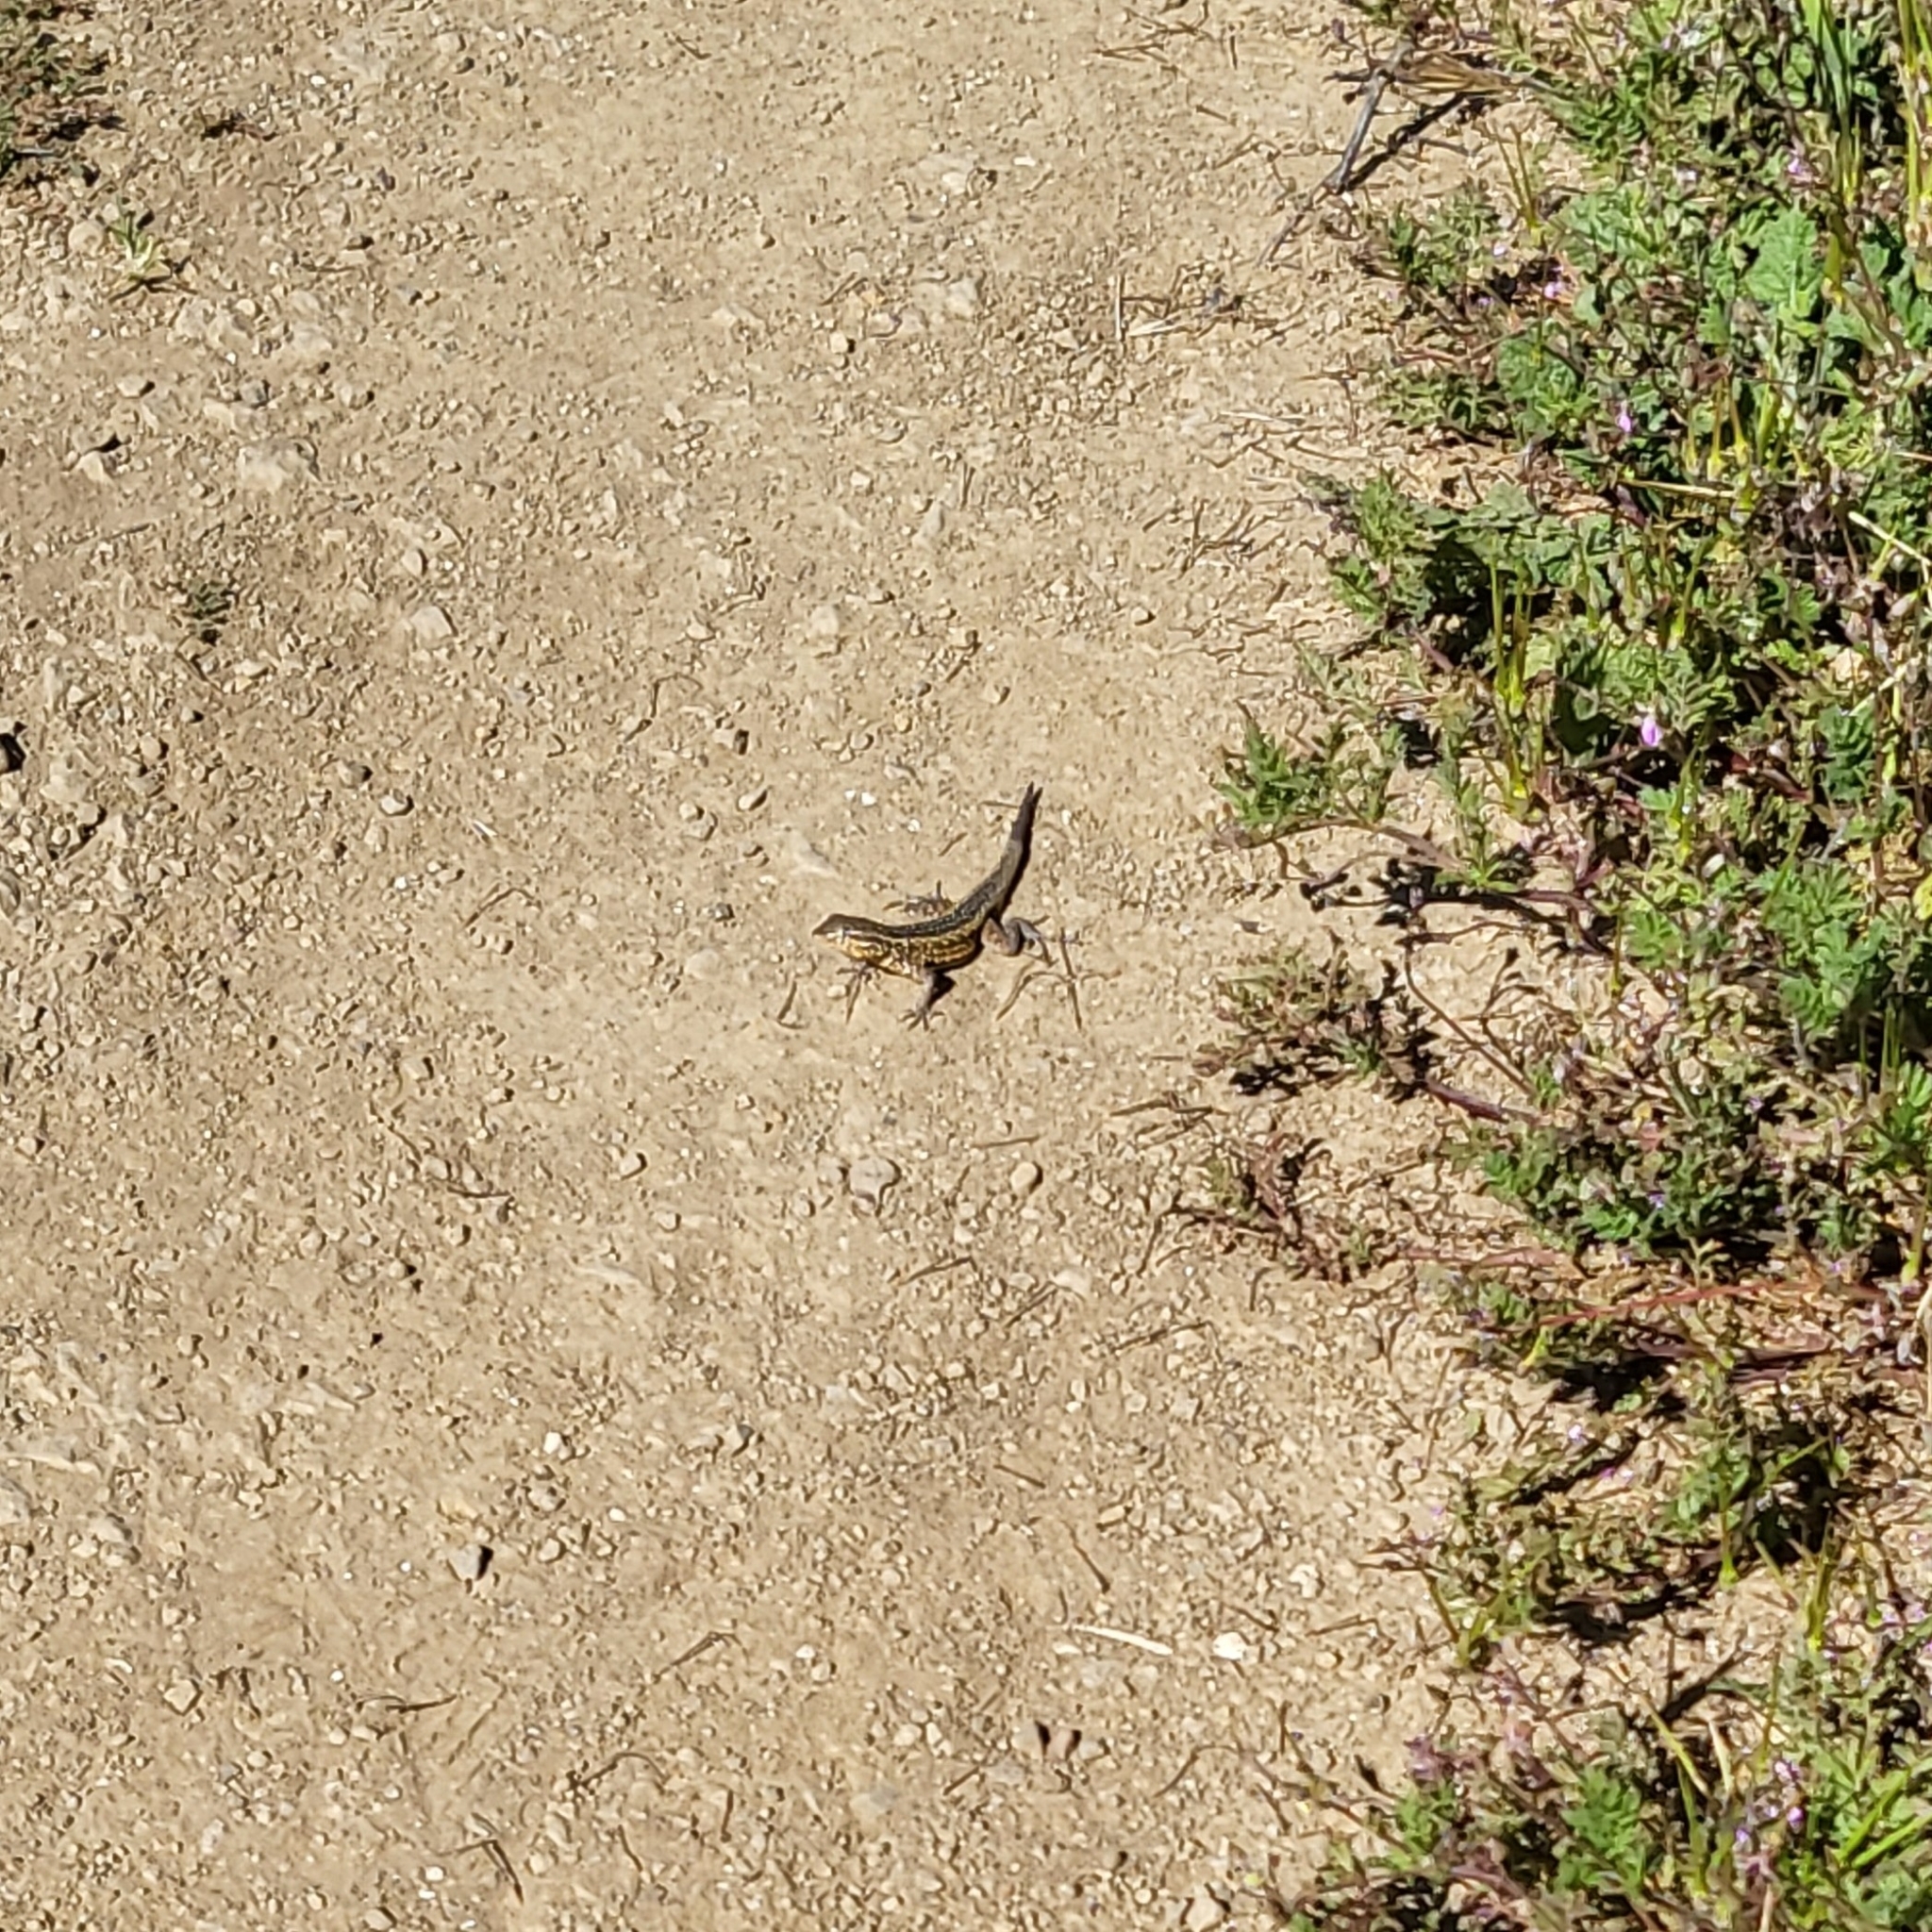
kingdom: Animalia
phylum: Chordata
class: Squamata
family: Phrynosomatidae
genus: Uta
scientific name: Uta stansburiana
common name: Side-blotched lizard
